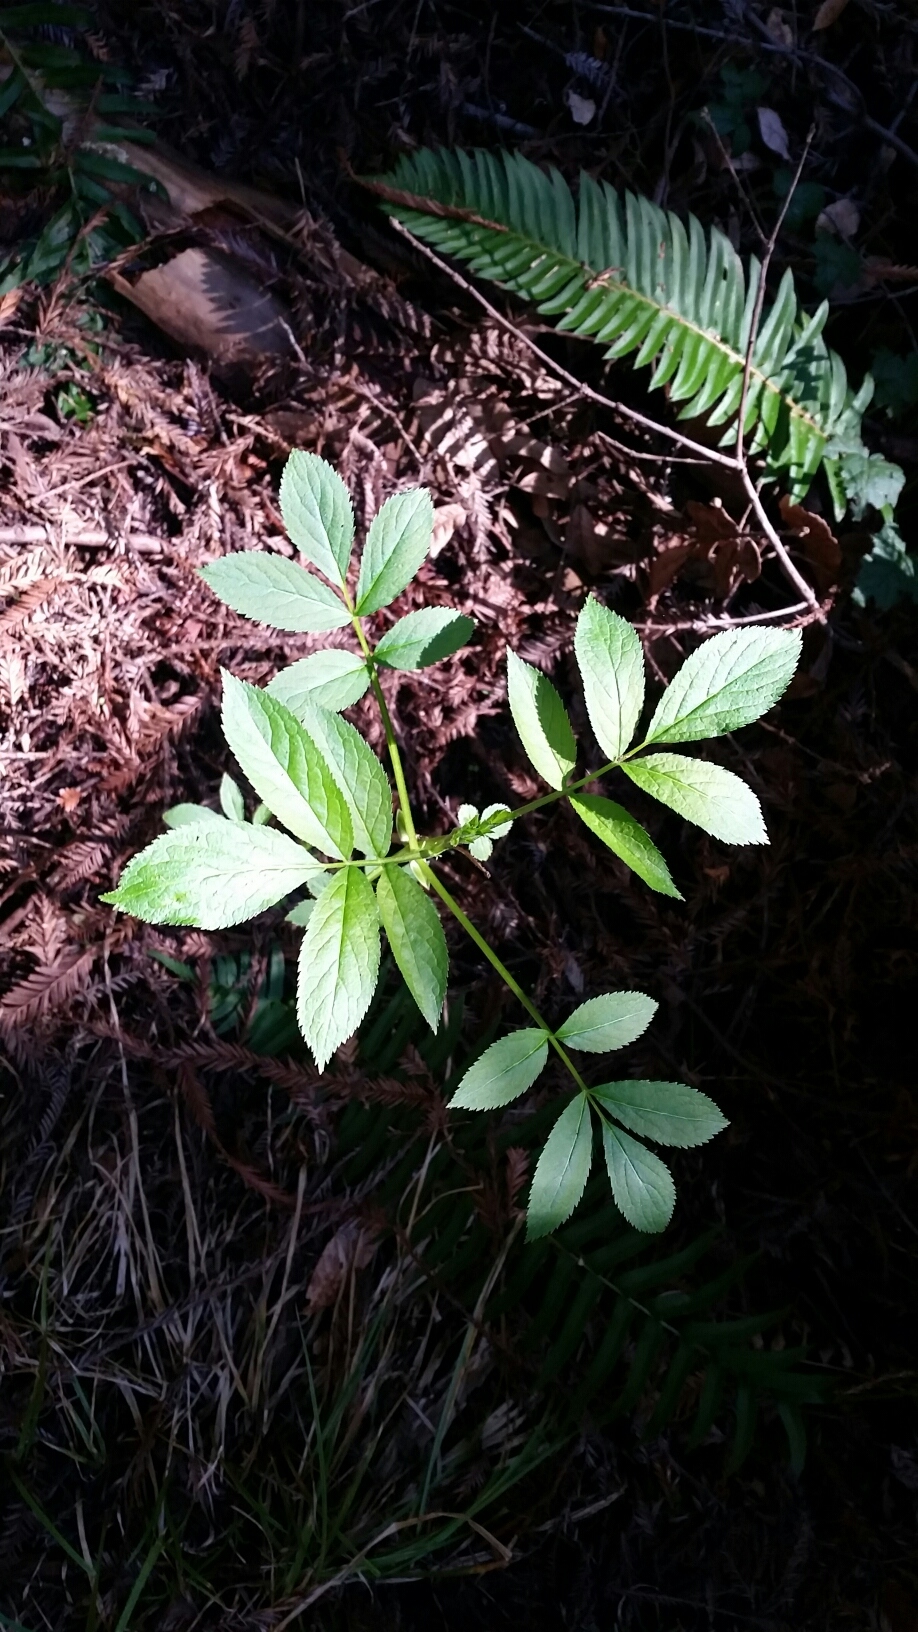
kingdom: Plantae
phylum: Tracheophyta
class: Magnoliopsida
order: Dipsacales
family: Viburnaceae
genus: Sambucus
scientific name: Sambucus racemosa
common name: Red-berried elder
